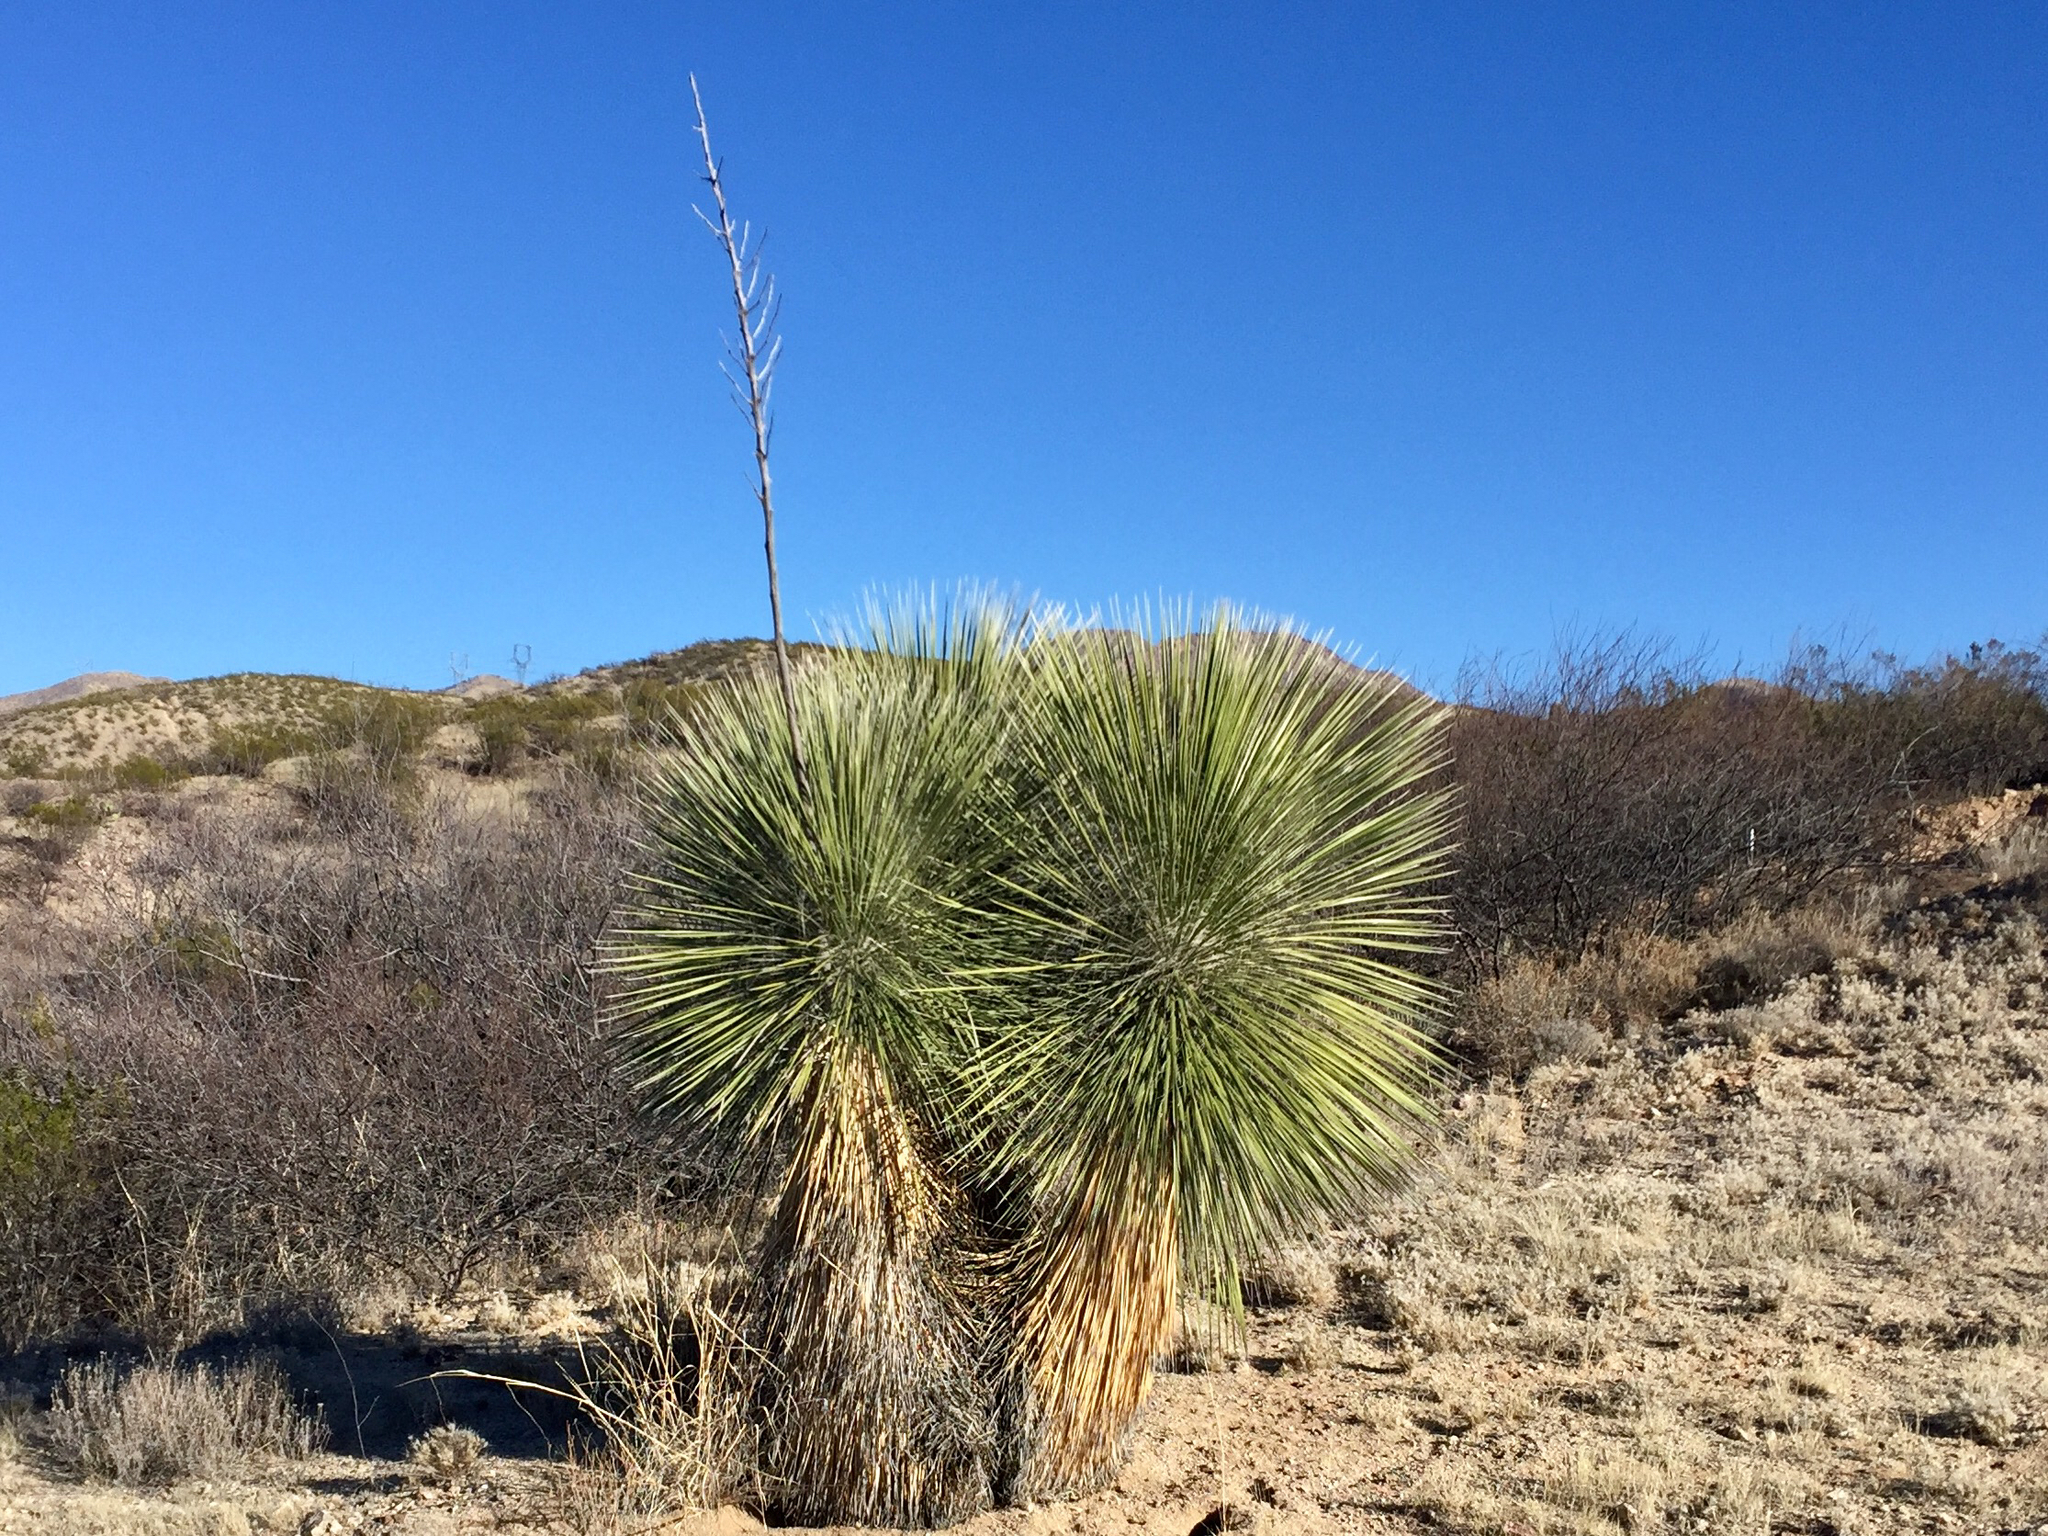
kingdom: Plantae
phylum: Tracheophyta
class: Liliopsida
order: Asparagales
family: Asparagaceae
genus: Yucca
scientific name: Yucca elata
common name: Palmella
